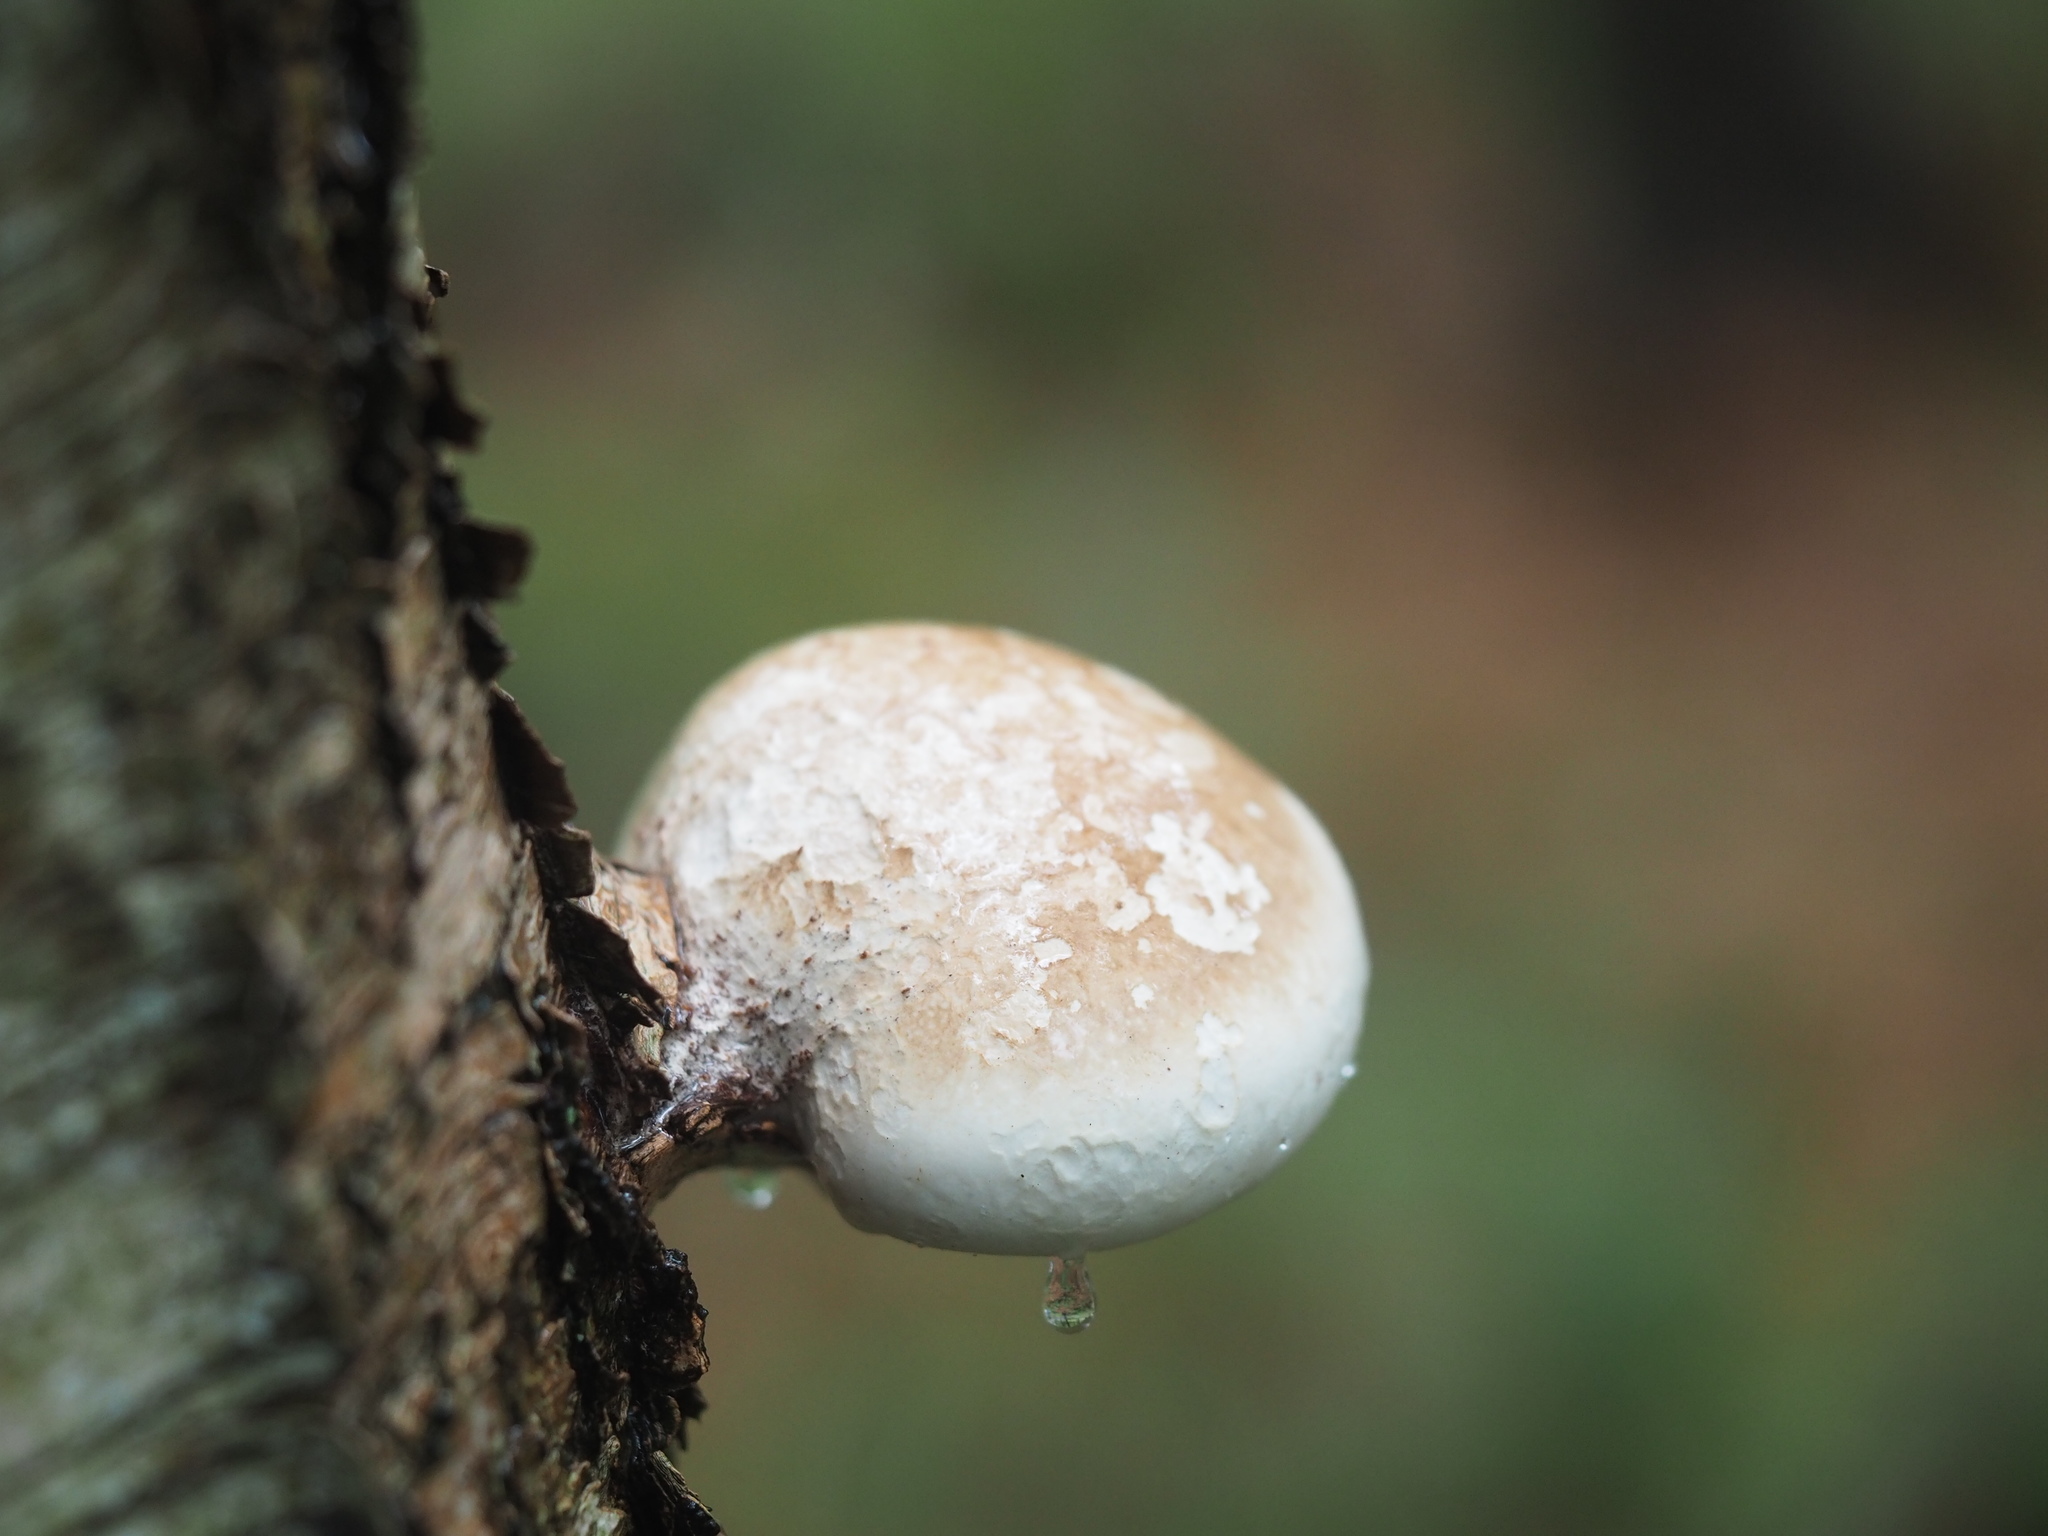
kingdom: Fungi
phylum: Basidiomycota
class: Agaricomycetes
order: Polyporales
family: Fomitopsidaceae
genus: Fomitopsis
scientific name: Fomitopsis betulina
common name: Birch polypore
